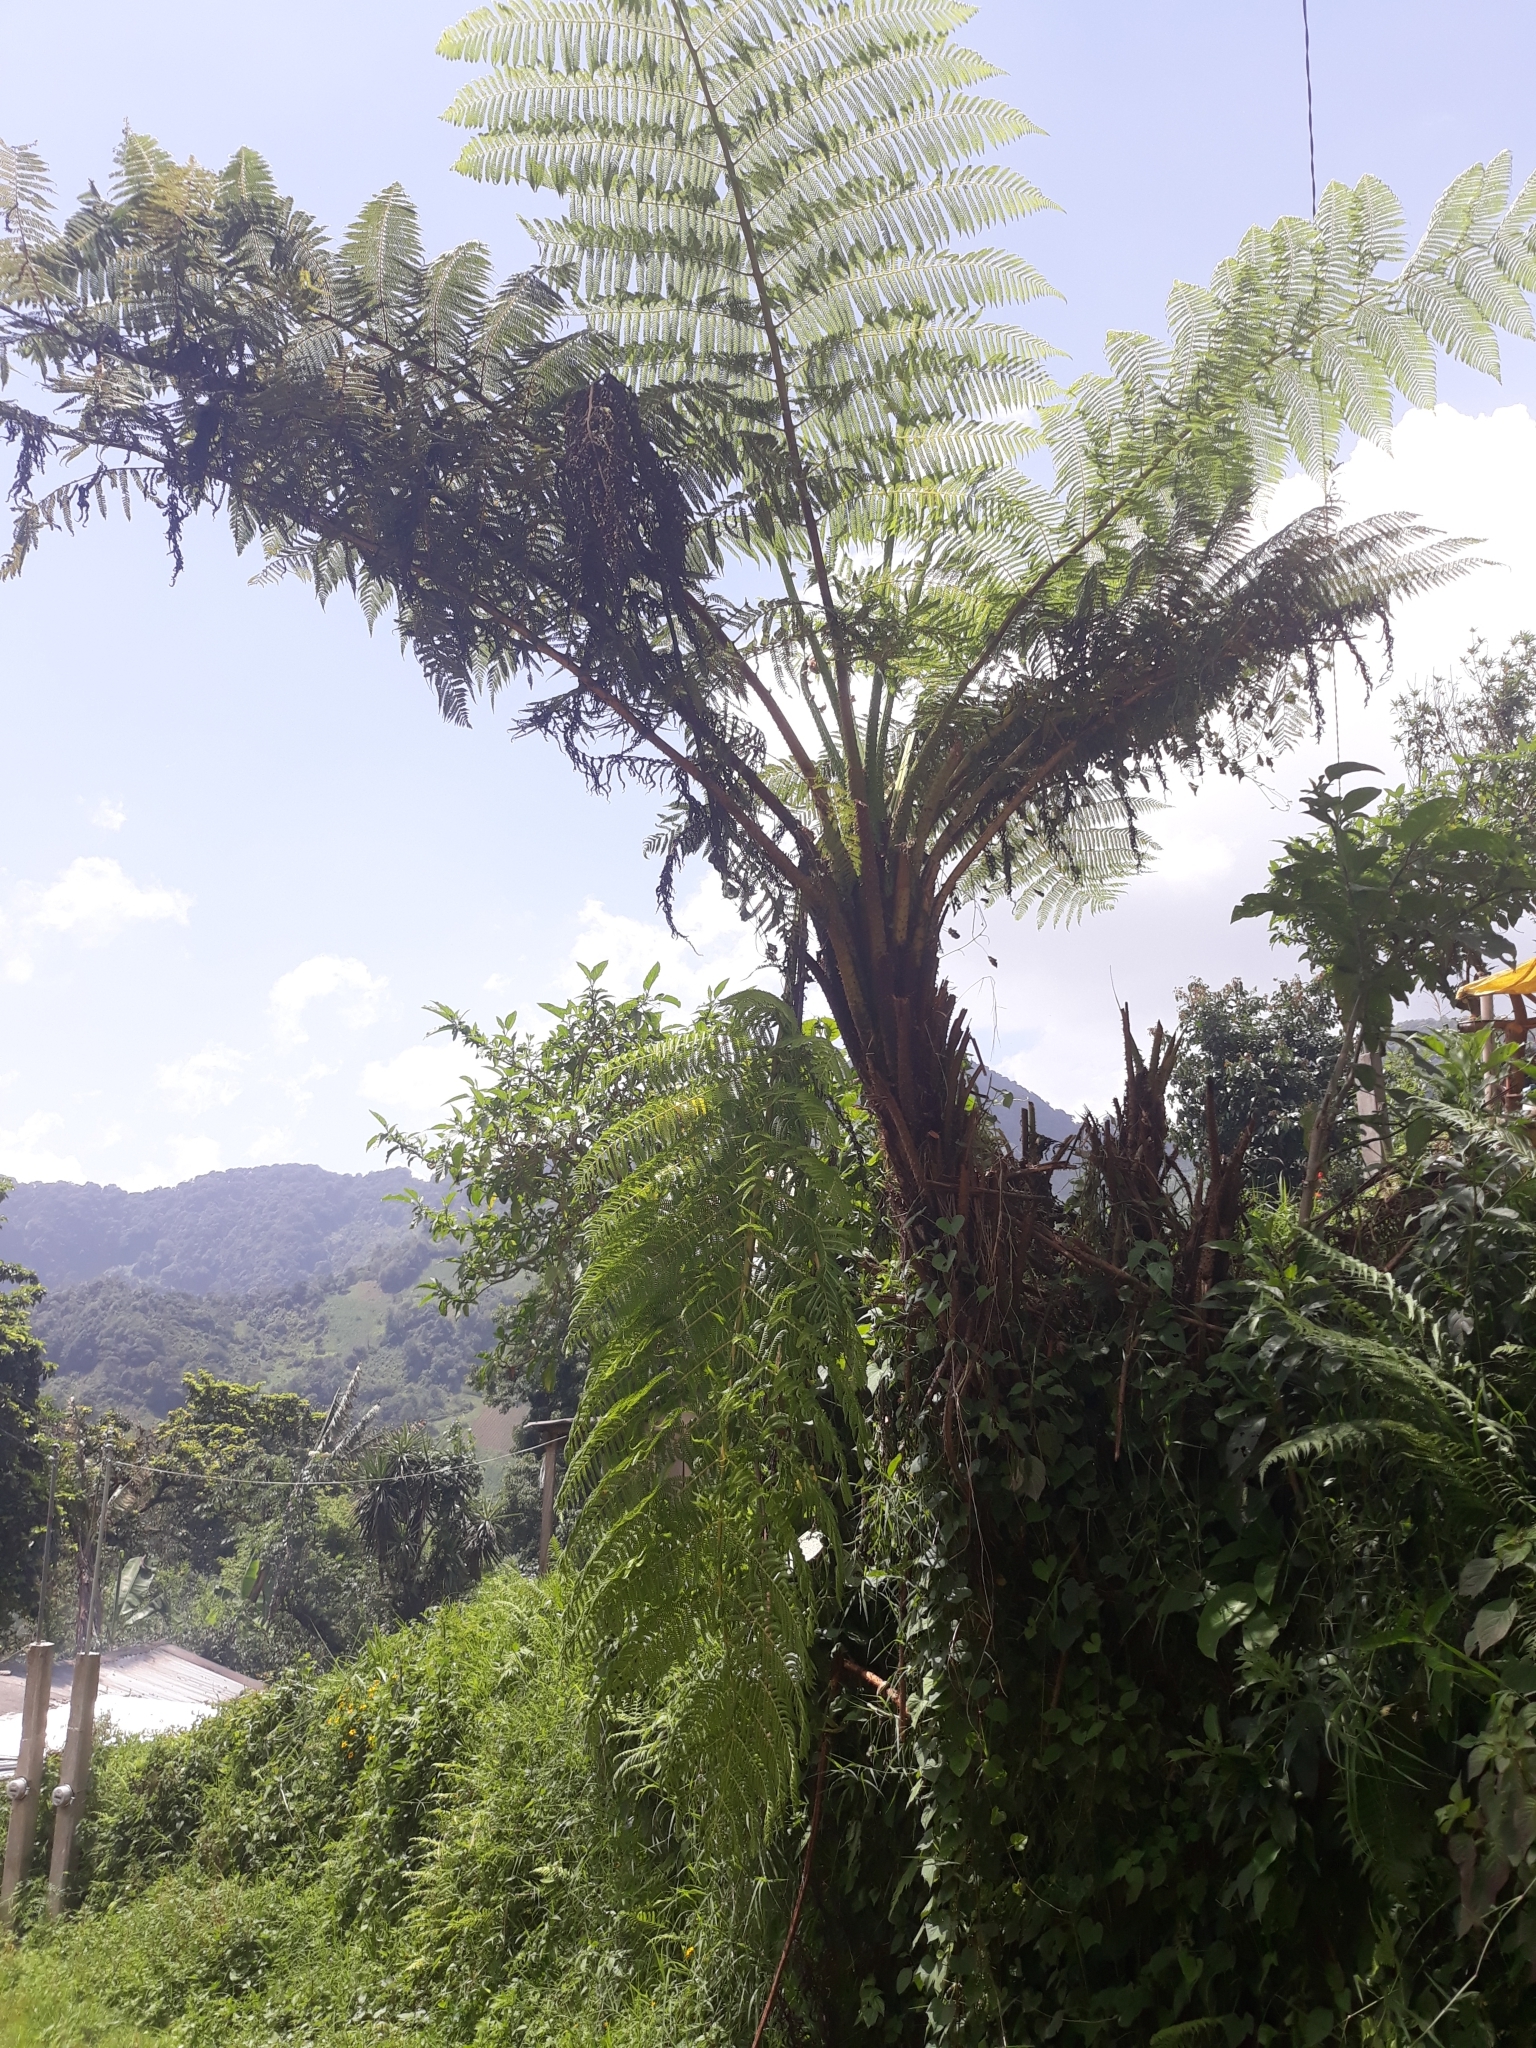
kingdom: Plantae
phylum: Tracheophyta
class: Polypodiopsida
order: Cyatheales
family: Cyatheaceae
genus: Cyathea
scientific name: Cyathea costaricensis
